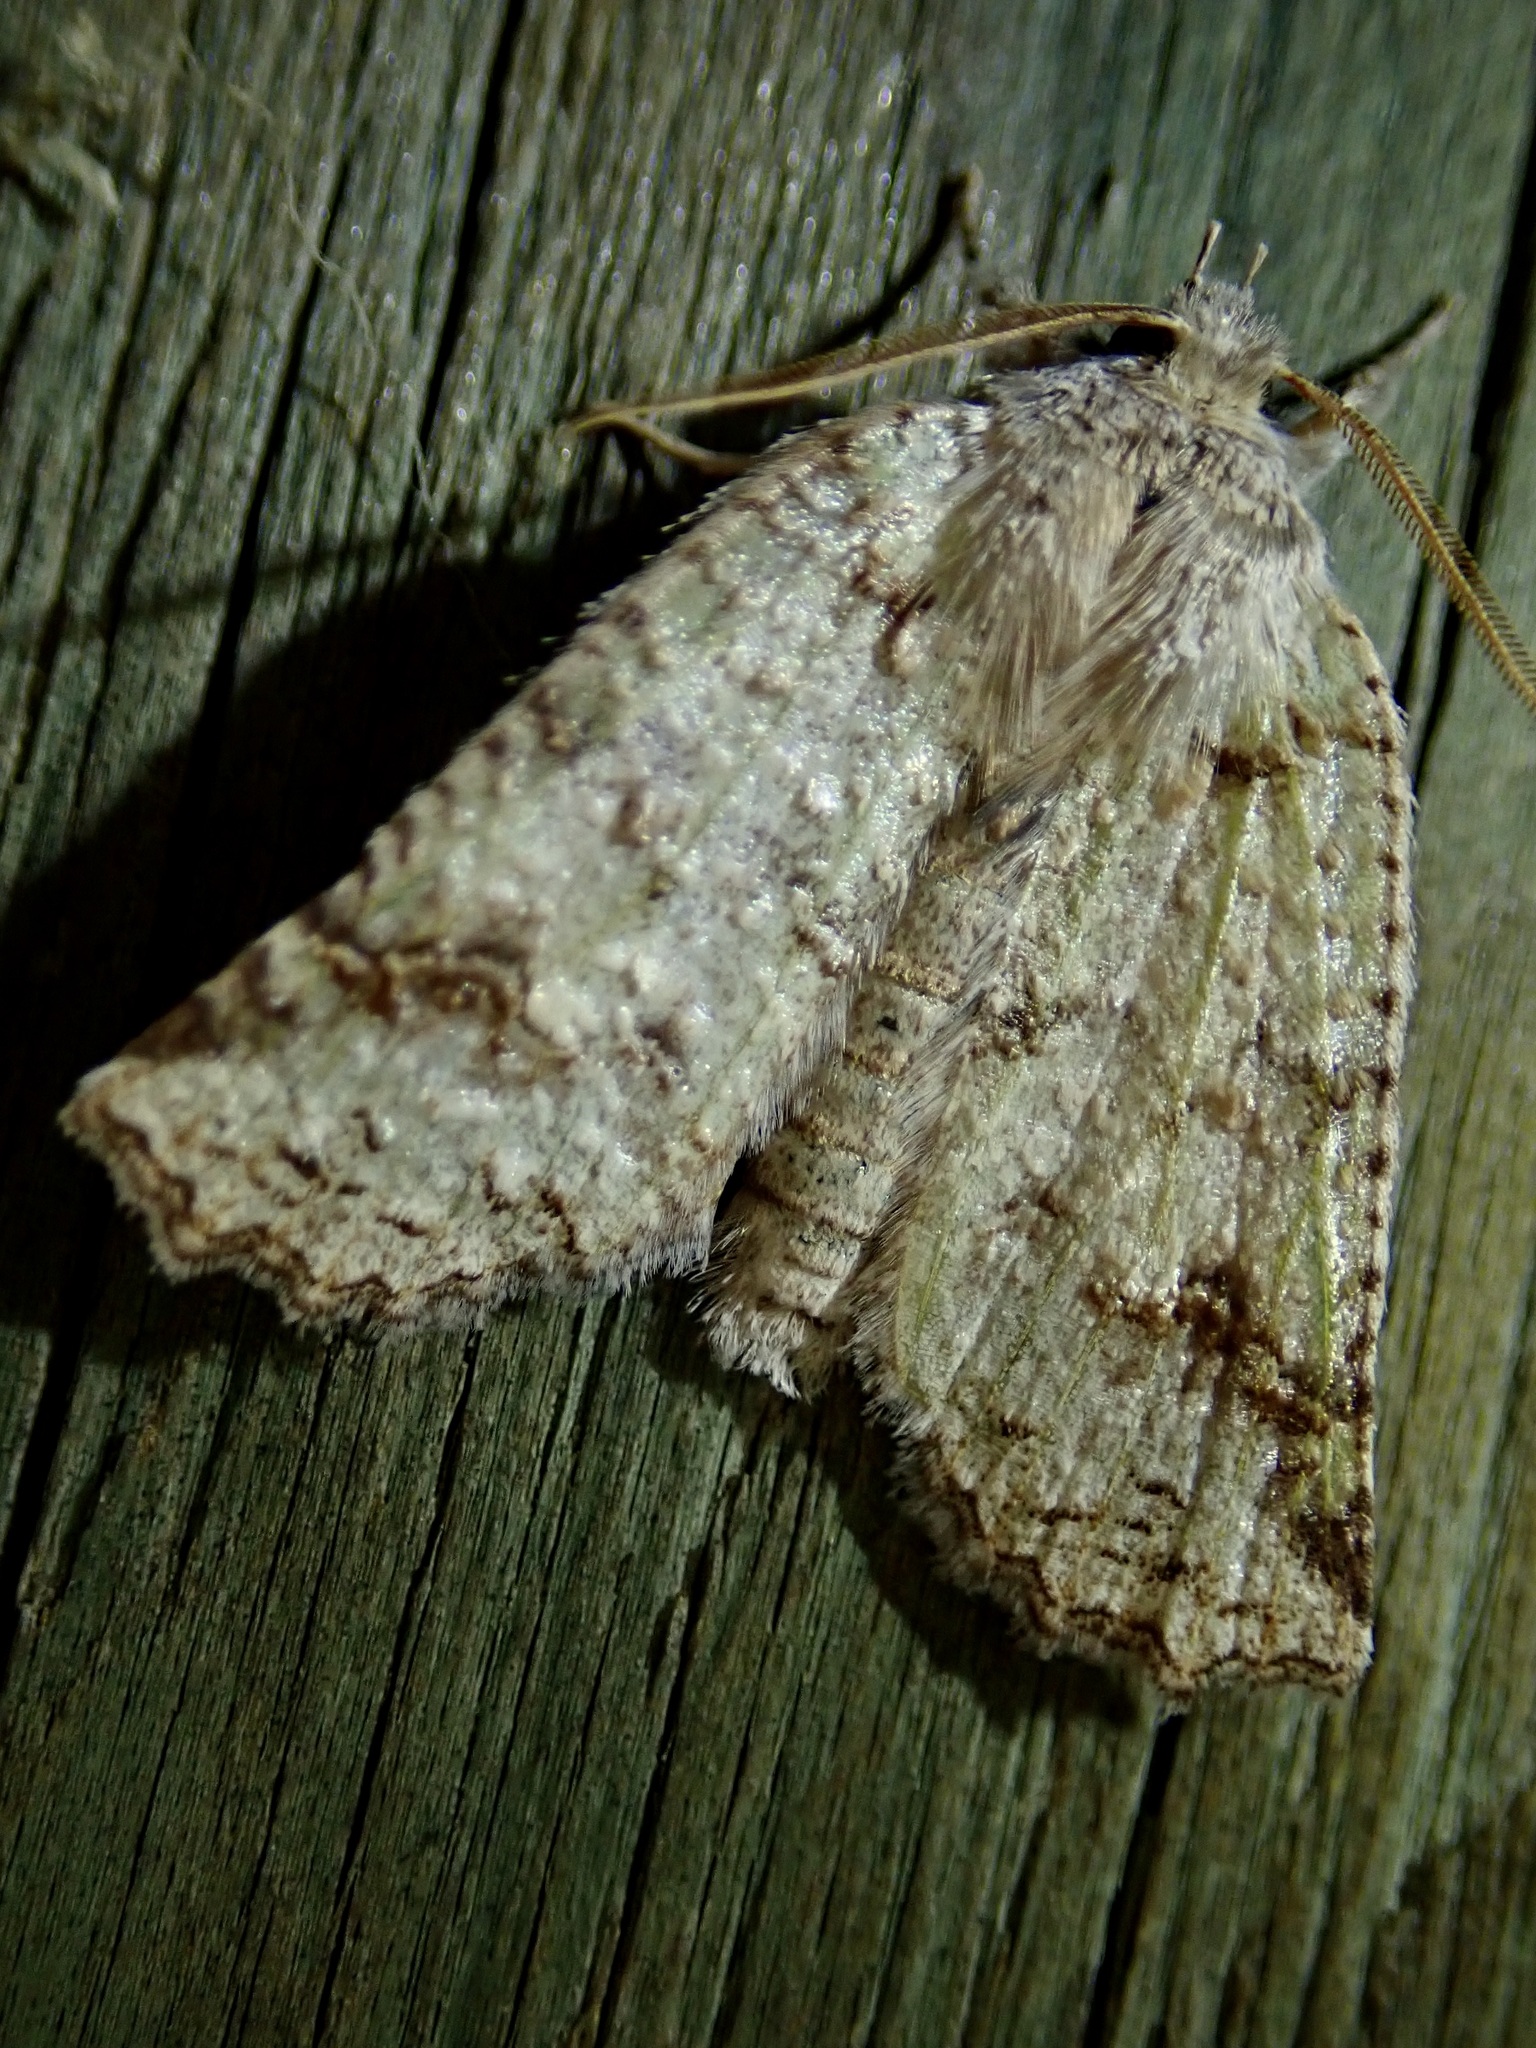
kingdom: Animalia
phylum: Arthropoda
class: Insecta
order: Lepidoptera
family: Geometridae
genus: Declana
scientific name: Declana floccosa
